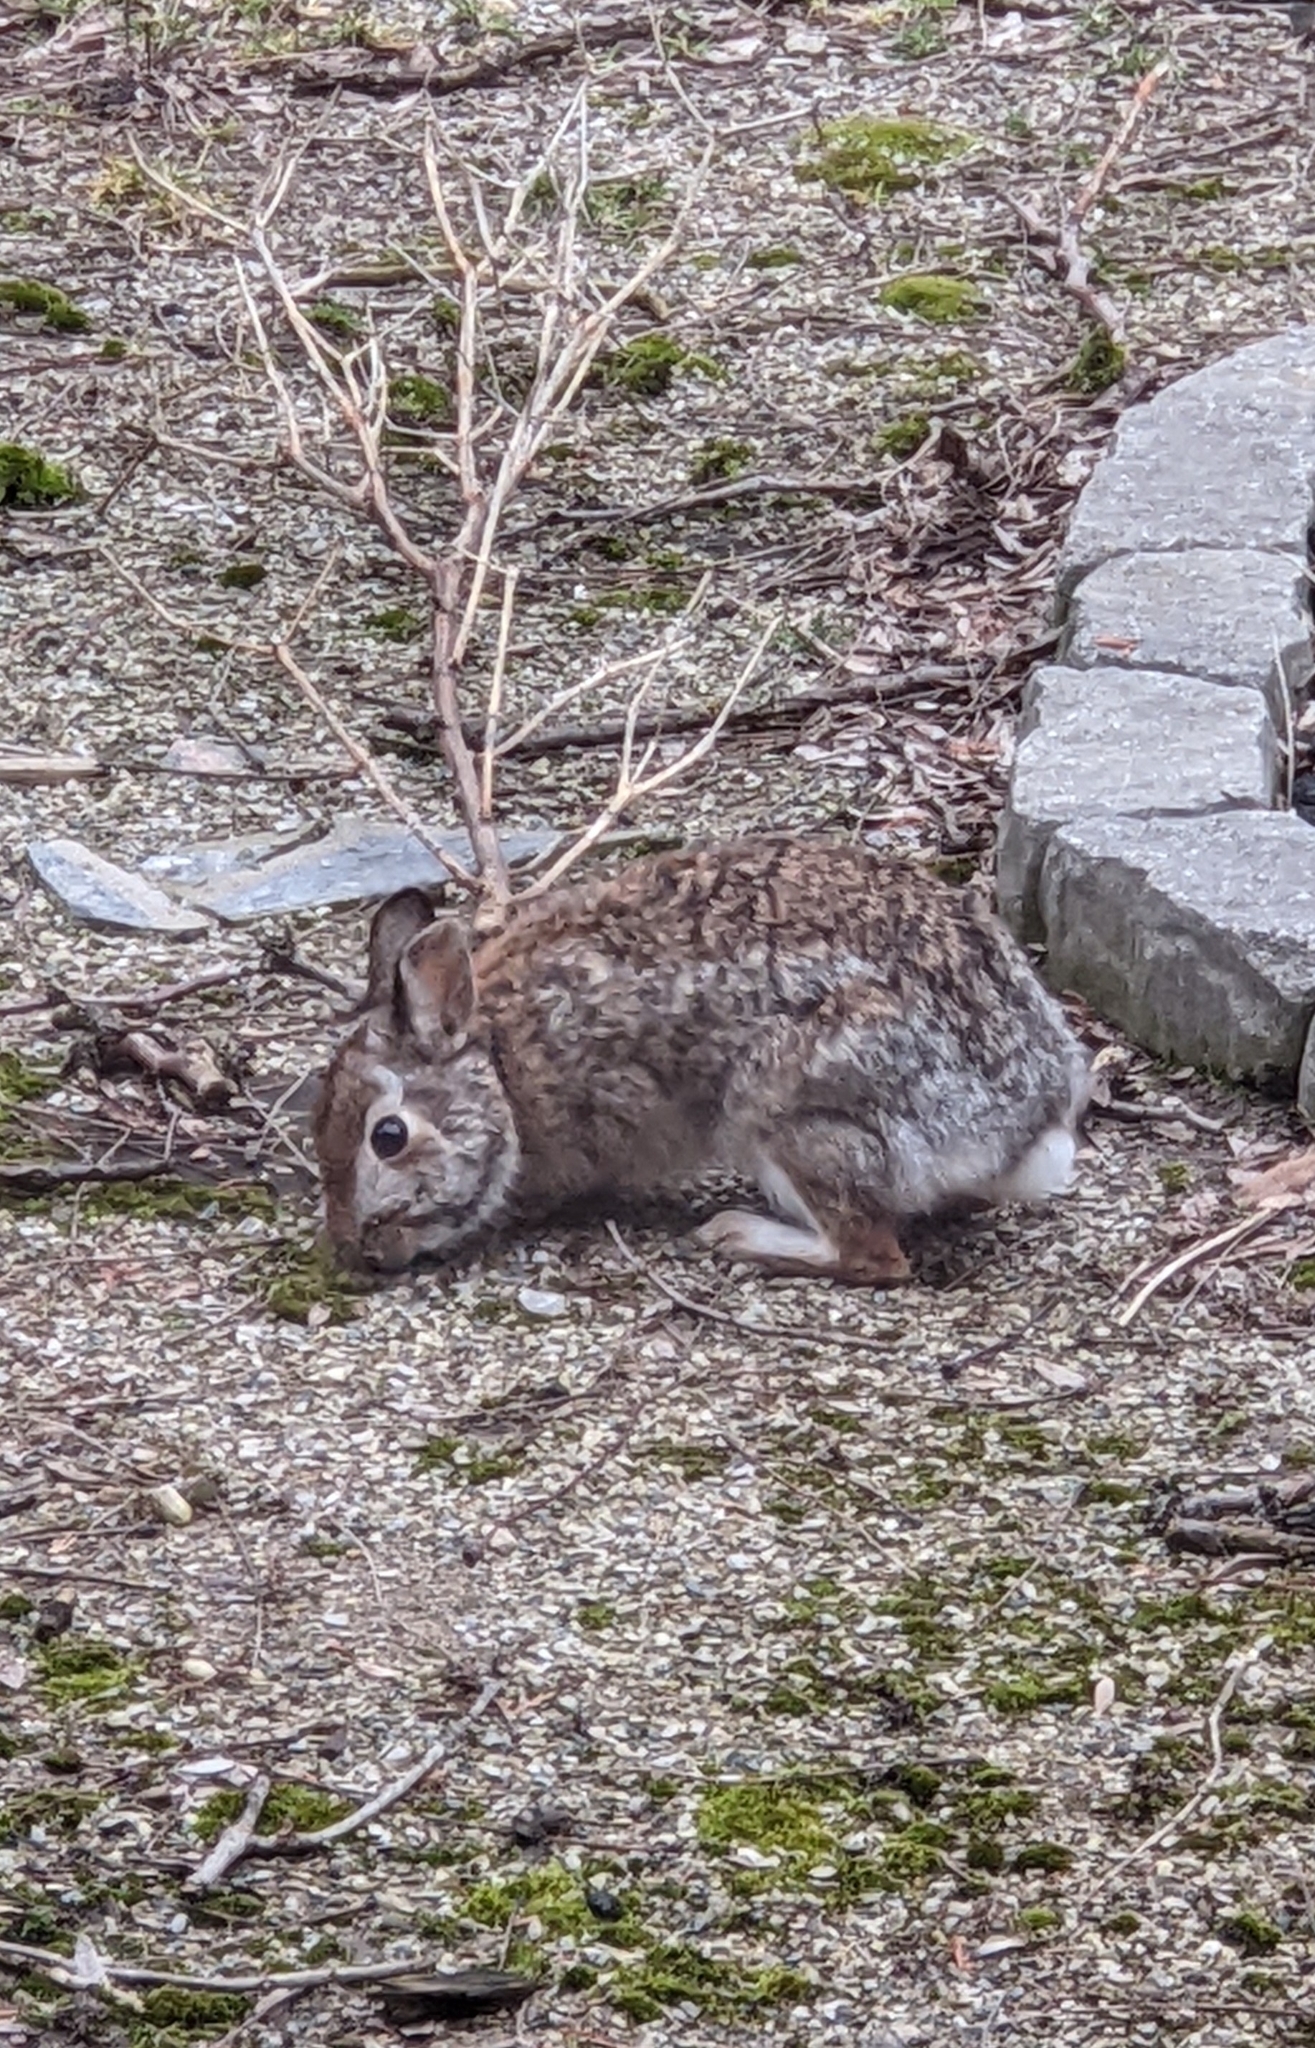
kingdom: Animalia
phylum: Chordata
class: Mammalia
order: Lagomorpha
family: Leporidae
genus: Sylvilagus
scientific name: Sylvilagus floridanus
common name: Eastern cottontail
